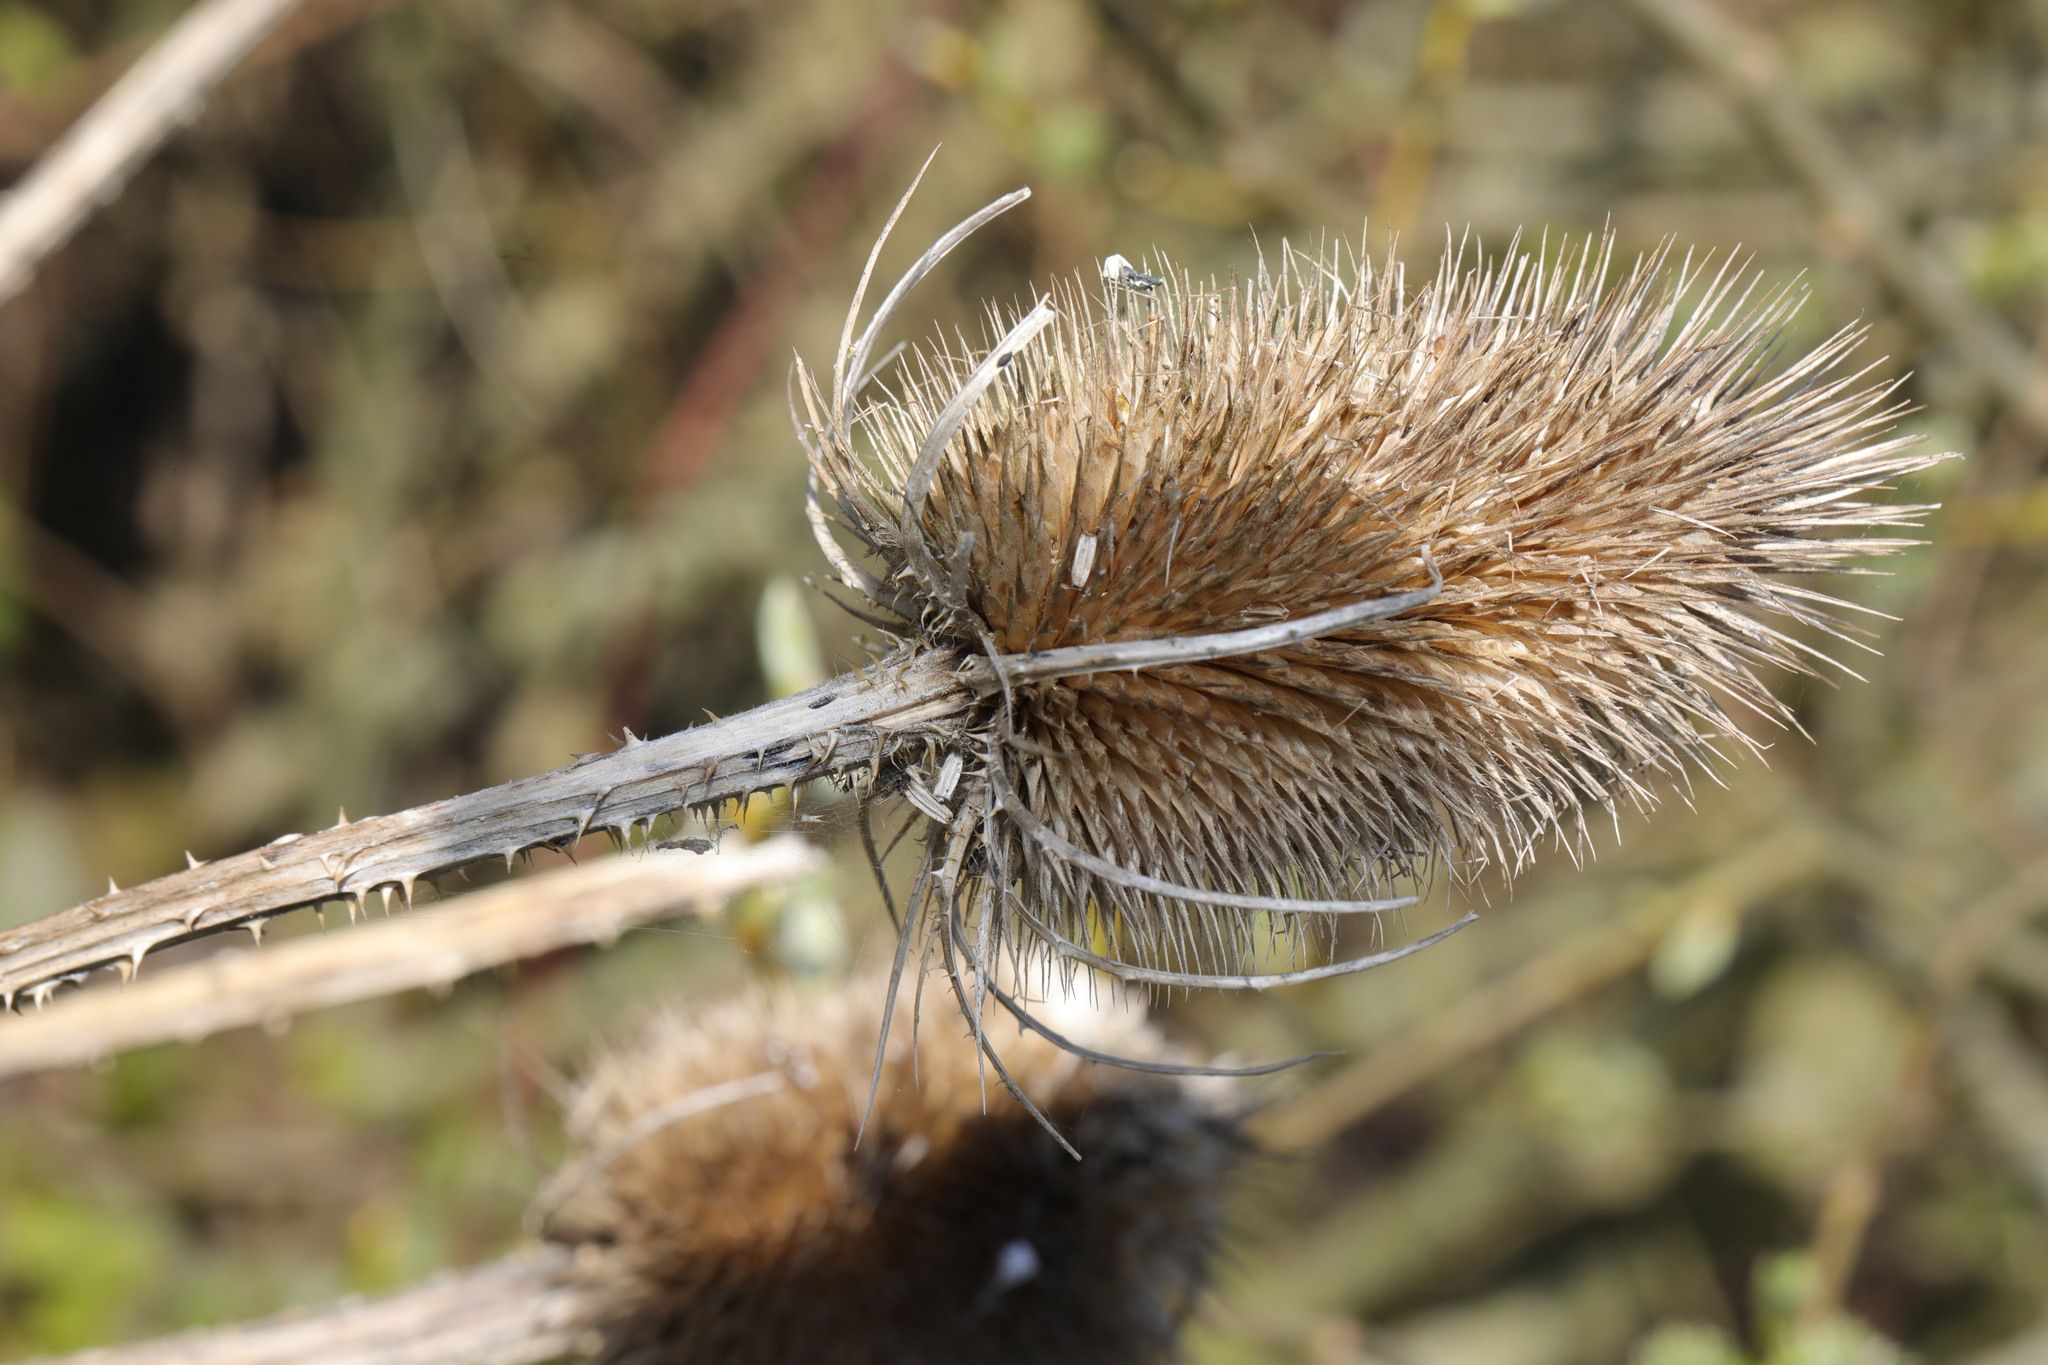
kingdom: Plantae
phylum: Tracheophyta
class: Magnoliopsida
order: Dipsacales
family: Caprifoliaceae
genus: Dipsacus
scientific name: Dipsacus fullonum
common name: Teasel
